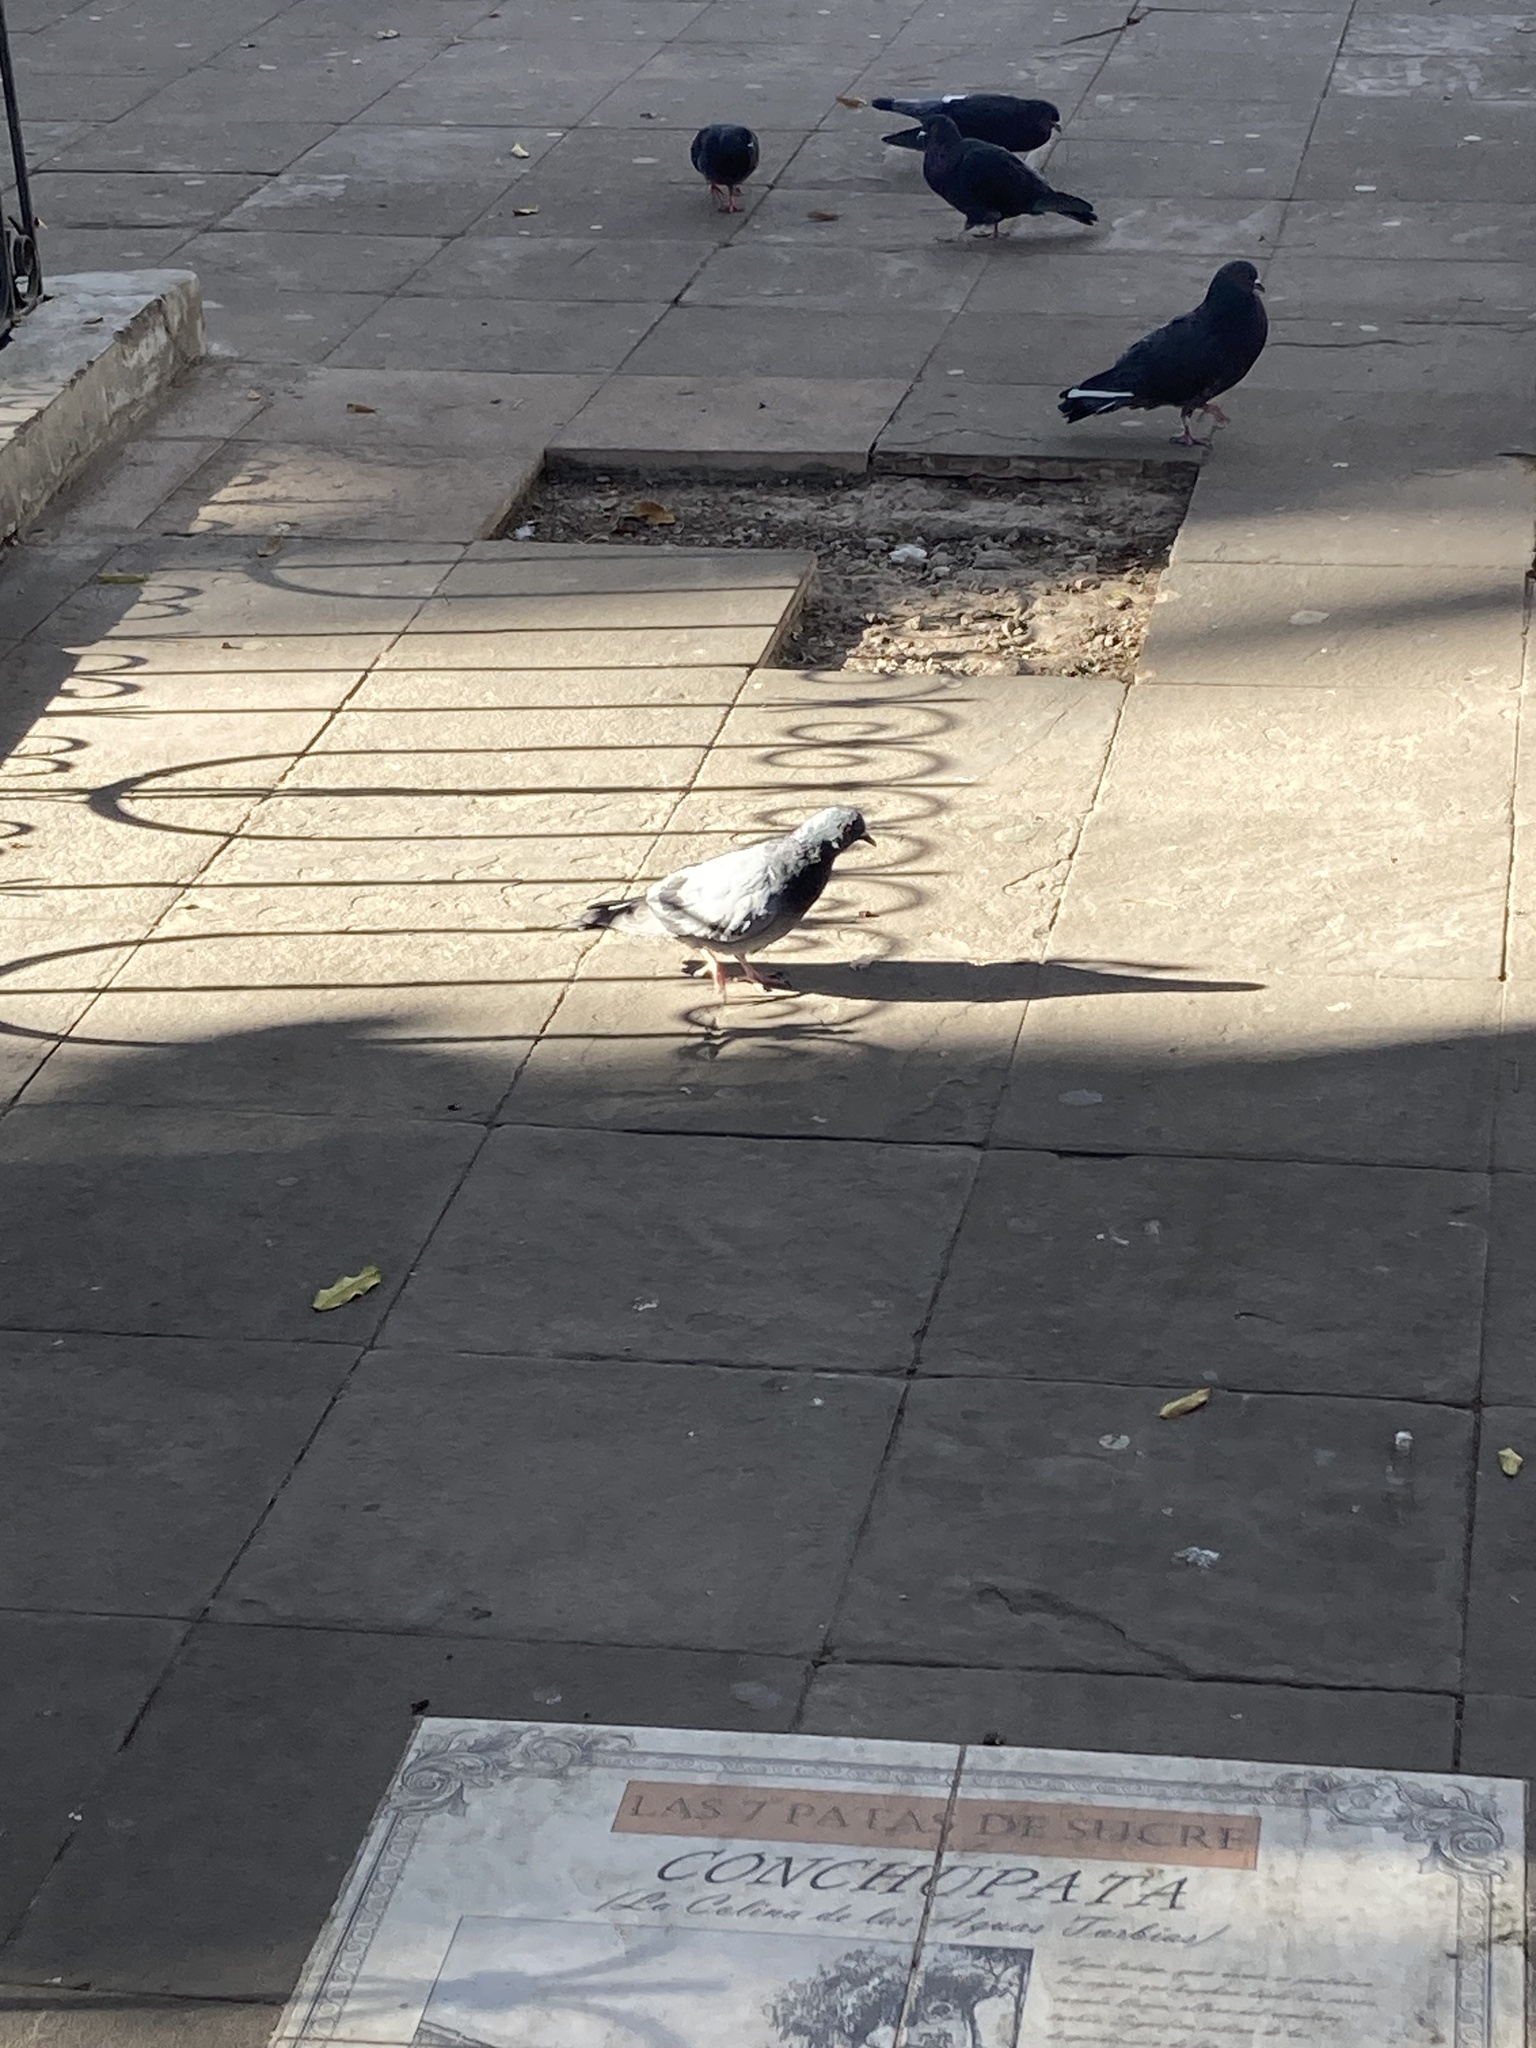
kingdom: Animalia
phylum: Chordata
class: Aves
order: Columbiformes
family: Columbidae
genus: Columba
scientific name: Columba livia
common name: Rock pigeon
